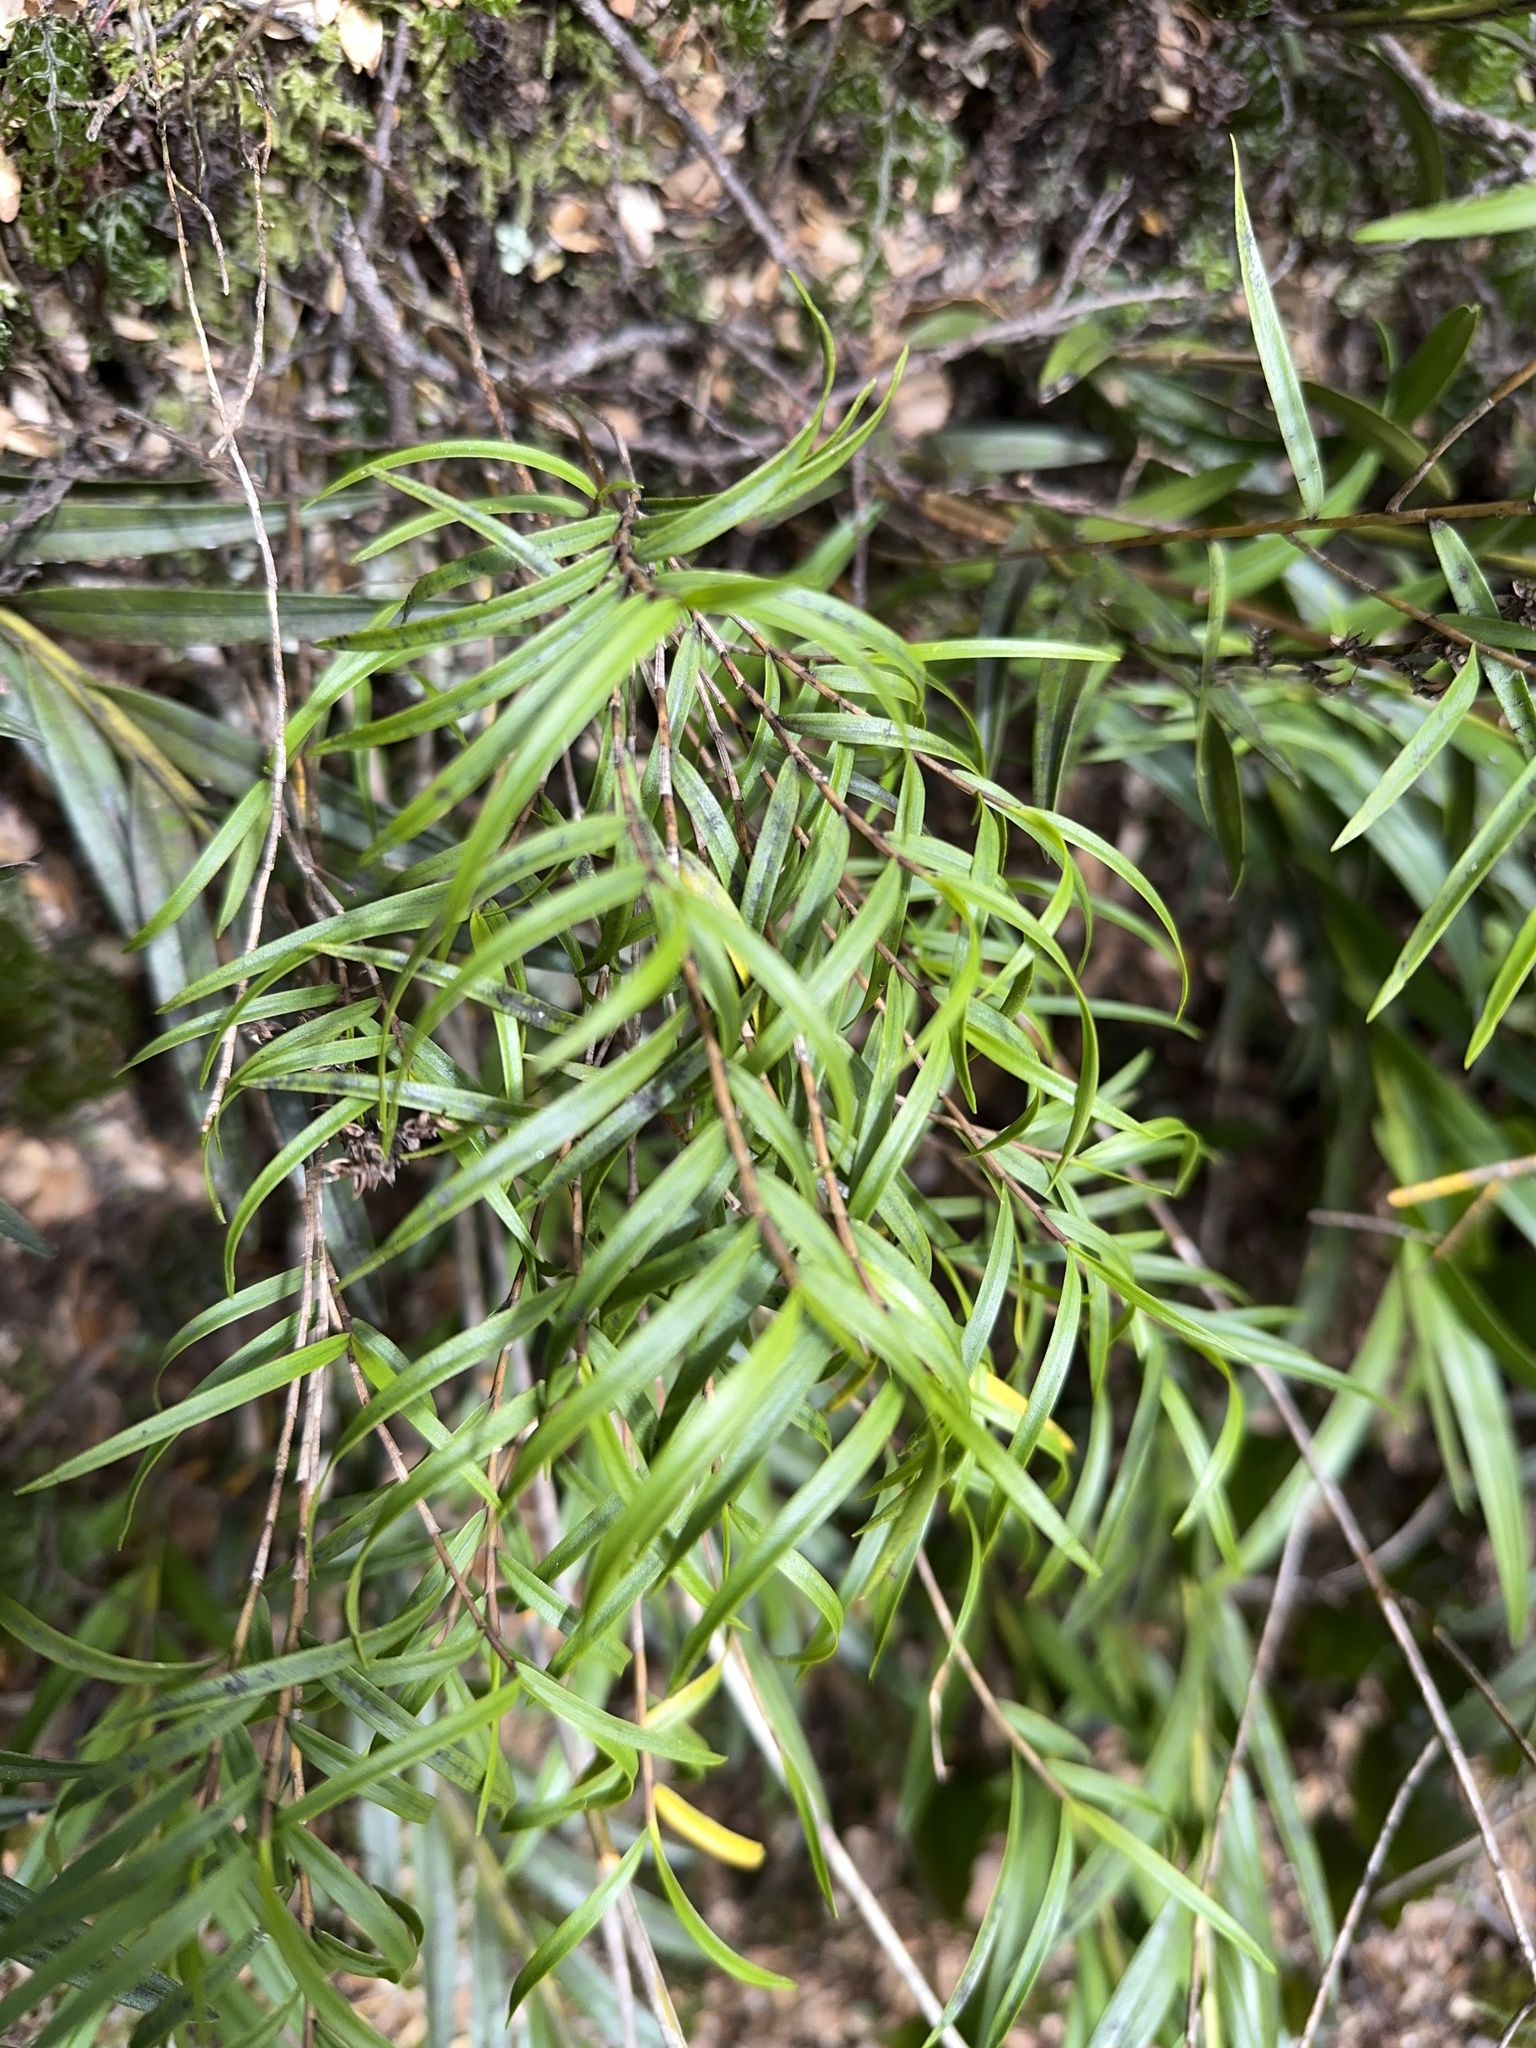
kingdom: Plantae
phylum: Tracheophyta
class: Liliopsida
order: Asparagales
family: Orchidaceae
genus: Earina
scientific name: Earina autumnalis
